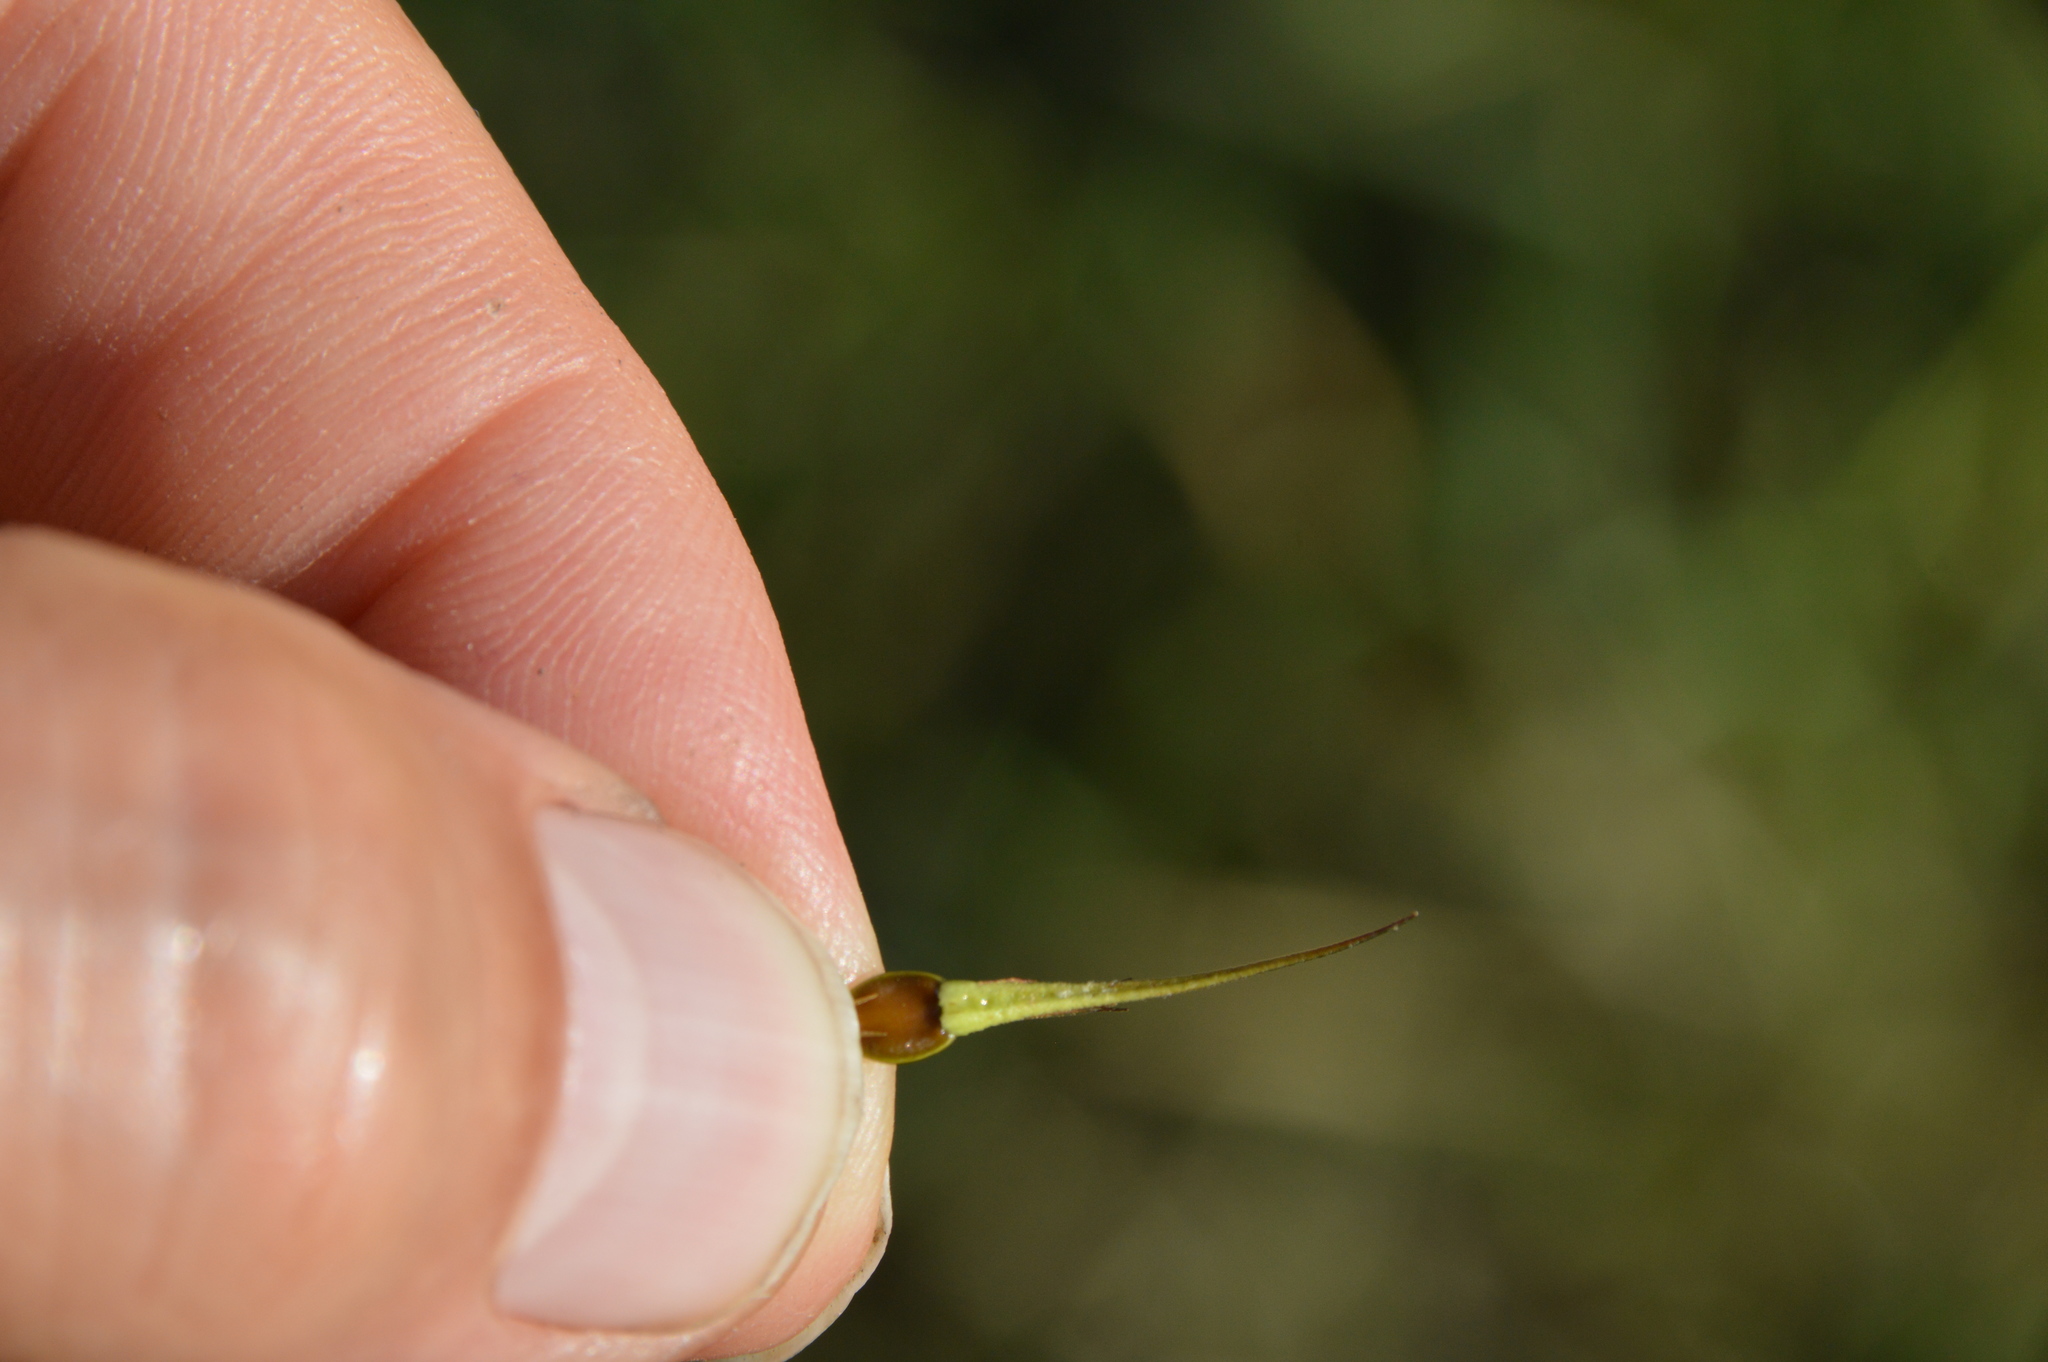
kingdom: Plantae
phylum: Tracheophyta
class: Liliopsida
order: Poales
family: Cyperaceae
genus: Rhynchospora
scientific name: Rhynchospora corniculata
